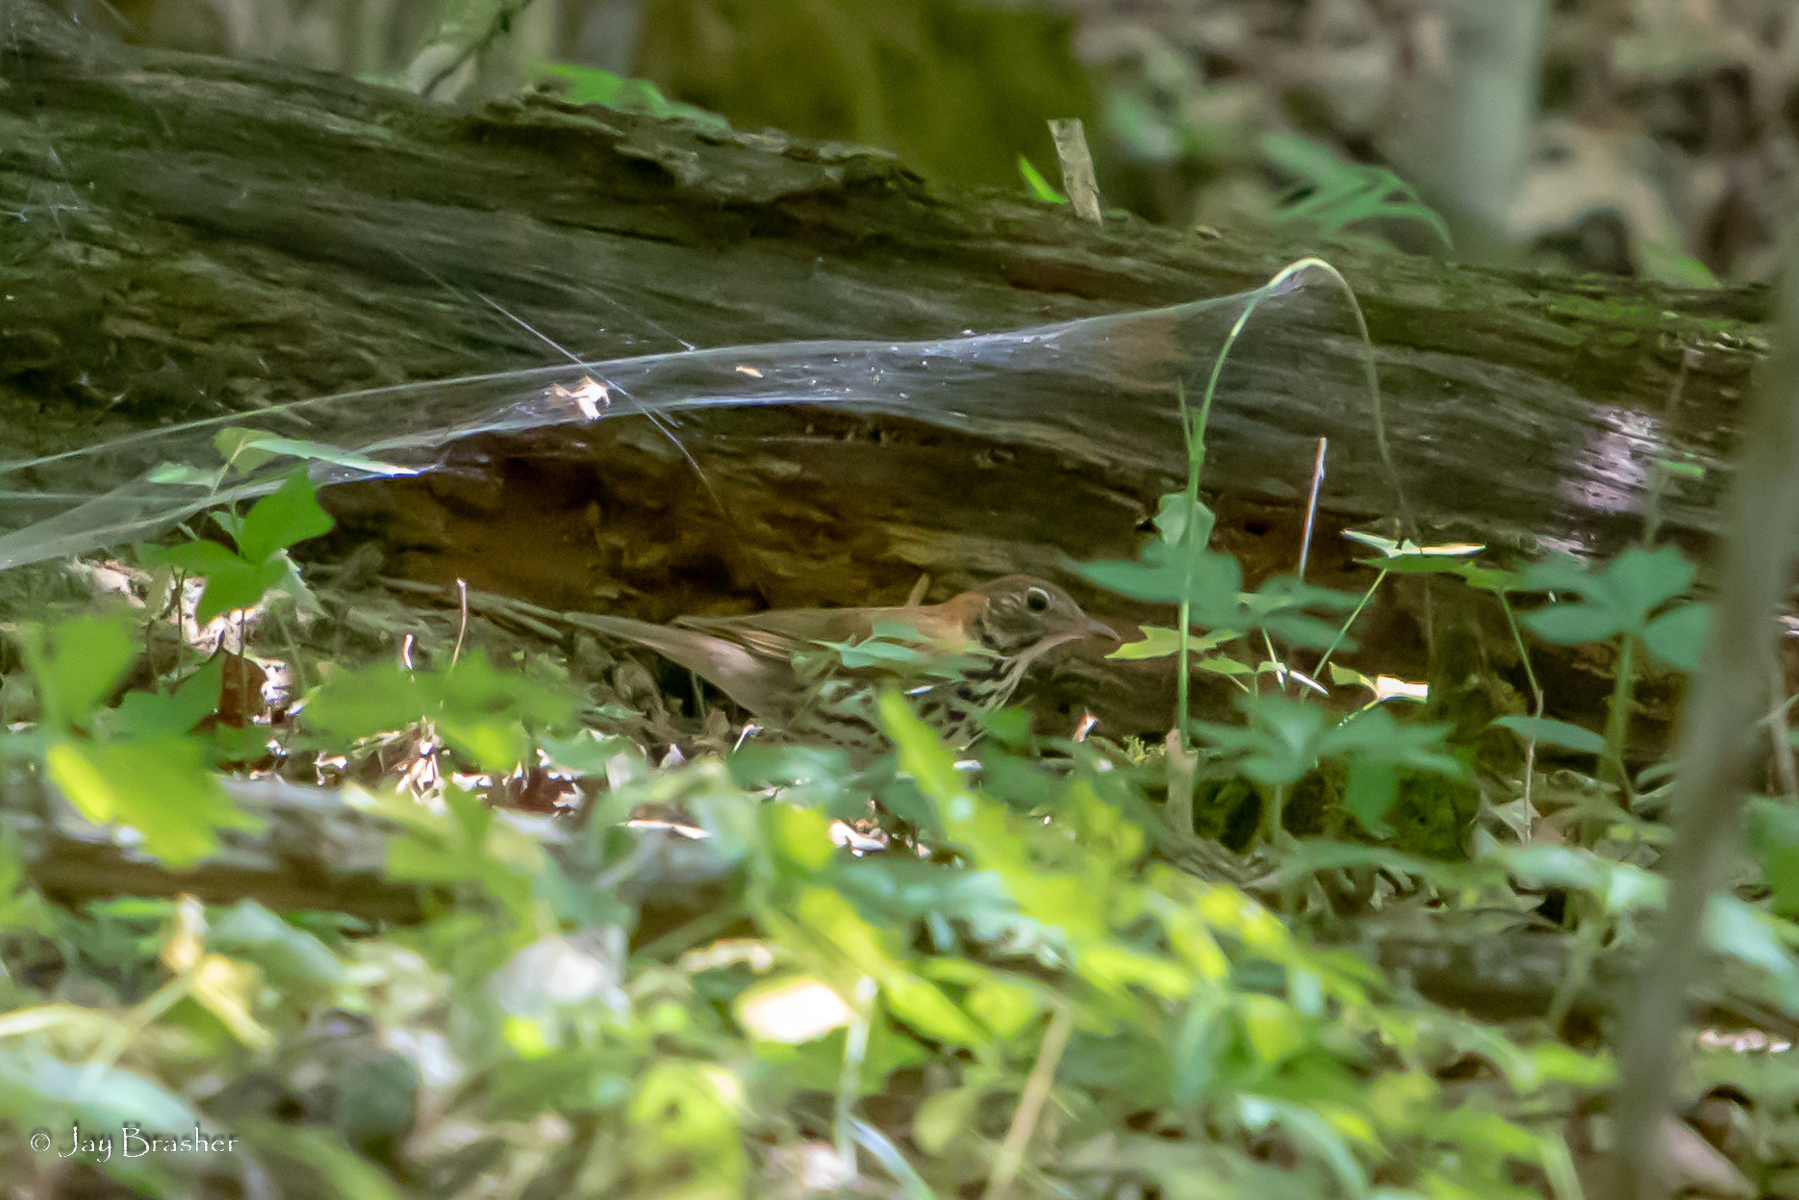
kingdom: Animalia
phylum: Chordata
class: Aves
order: Passeriformes
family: Turdidae
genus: Hylocichla
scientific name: Hylocichla mustelina
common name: Wood thrush
